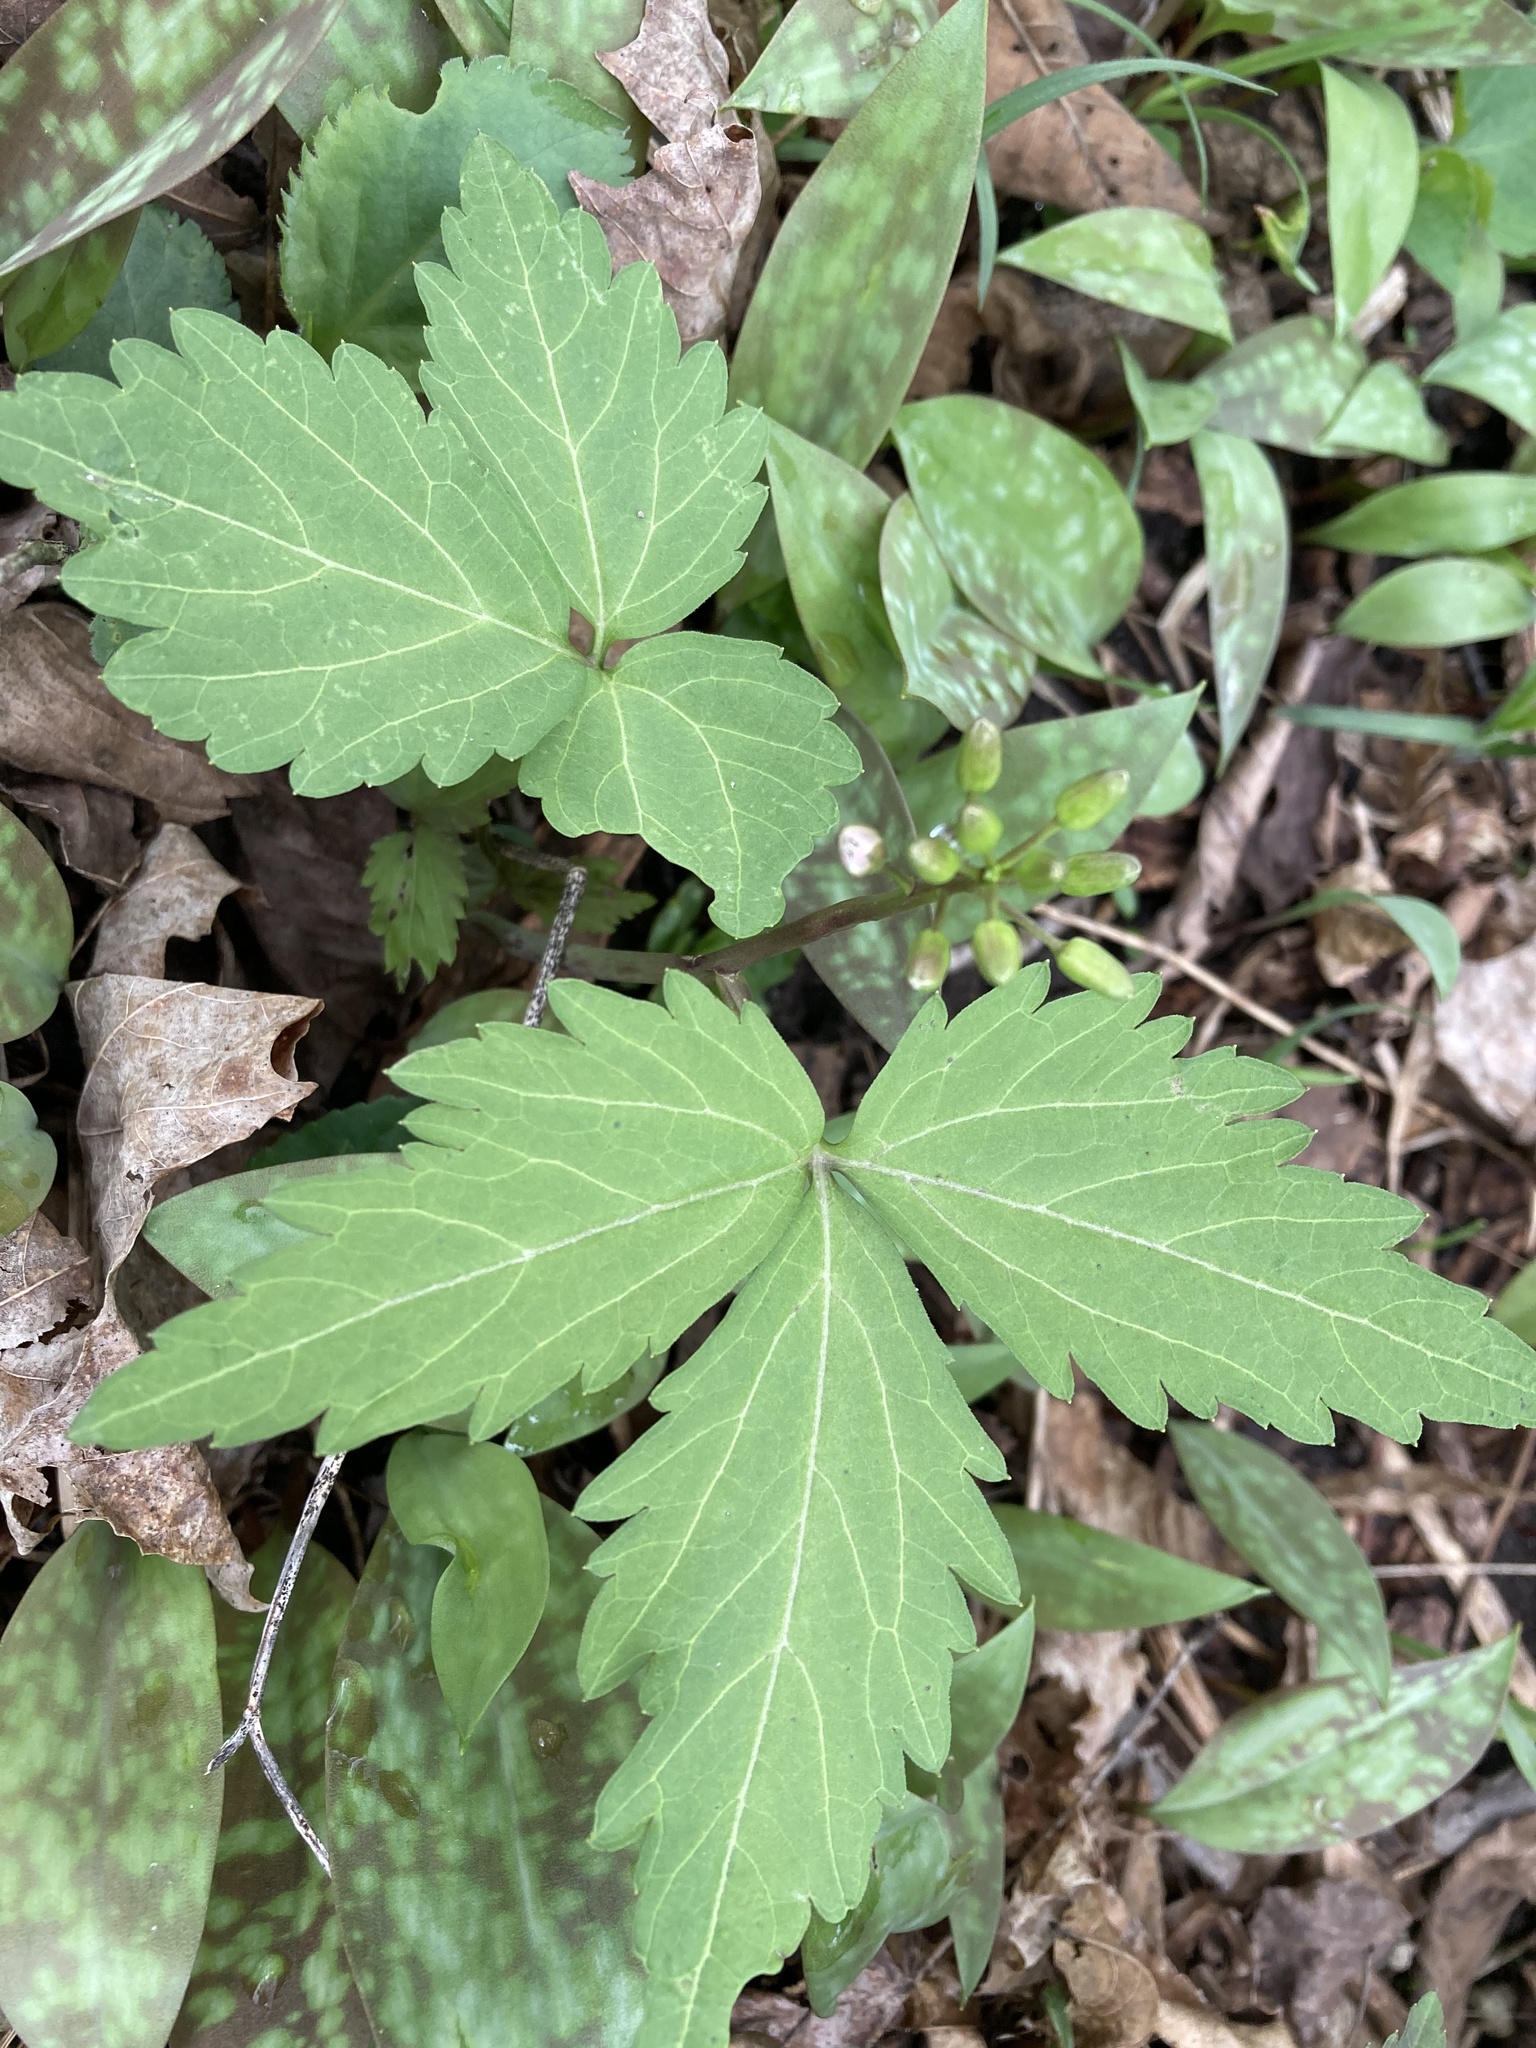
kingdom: Plantae
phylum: Tracheophyta
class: Magnoliopsida
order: Brassicales
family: Brassicaceae
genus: Cardamine
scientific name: Cardamine diphylla
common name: Broad-leaved toothwort
